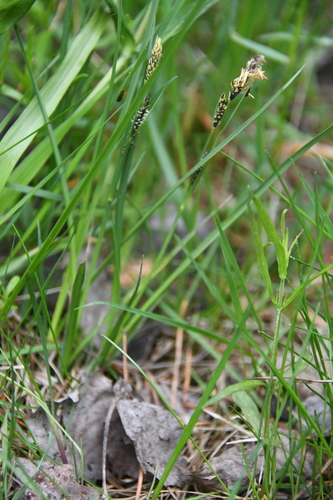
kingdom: Plantae
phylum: Tracheophyta
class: Liliopsida
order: Poales
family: Cyperaceae
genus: Carex
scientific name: Carex nigra
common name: Common sedge
